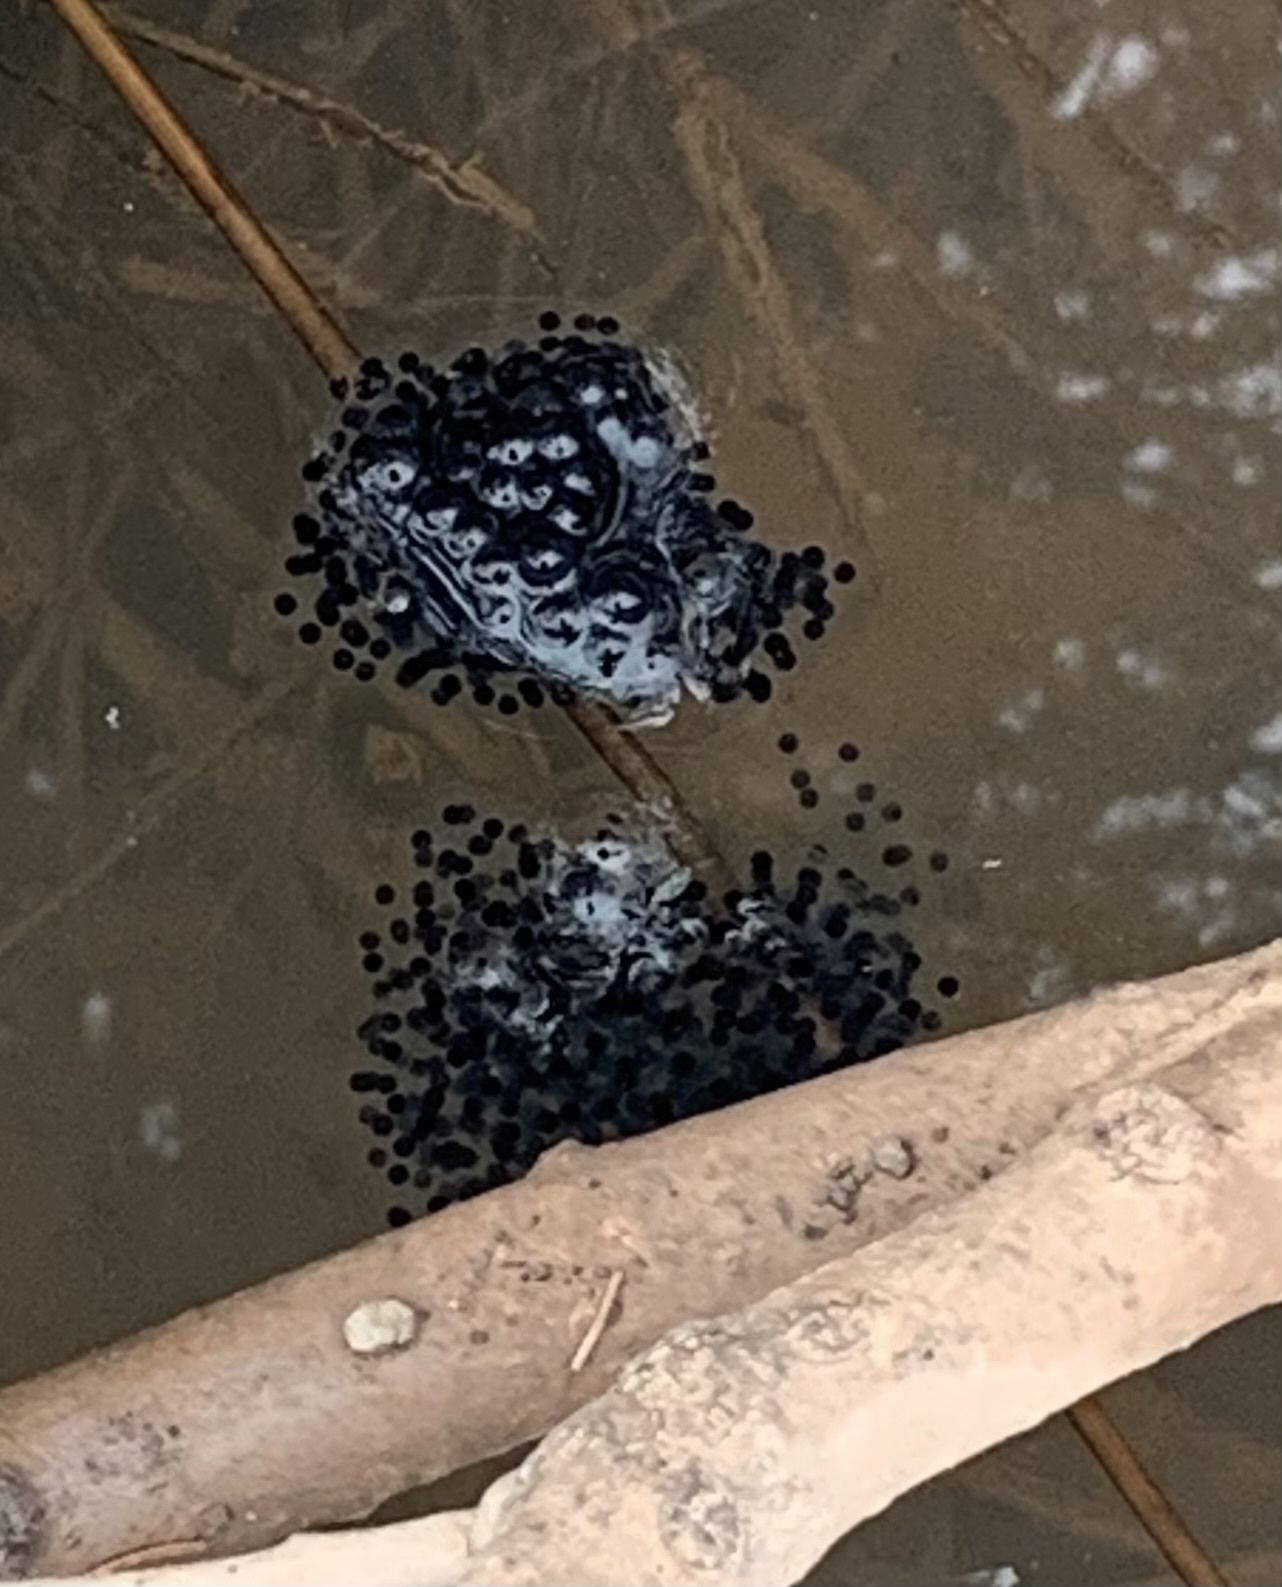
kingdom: Animalia
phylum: Chordata
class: Amphibia
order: Anura
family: Ranidae
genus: Lithobates
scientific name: Lithobates sylvaticus
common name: Wood frog
